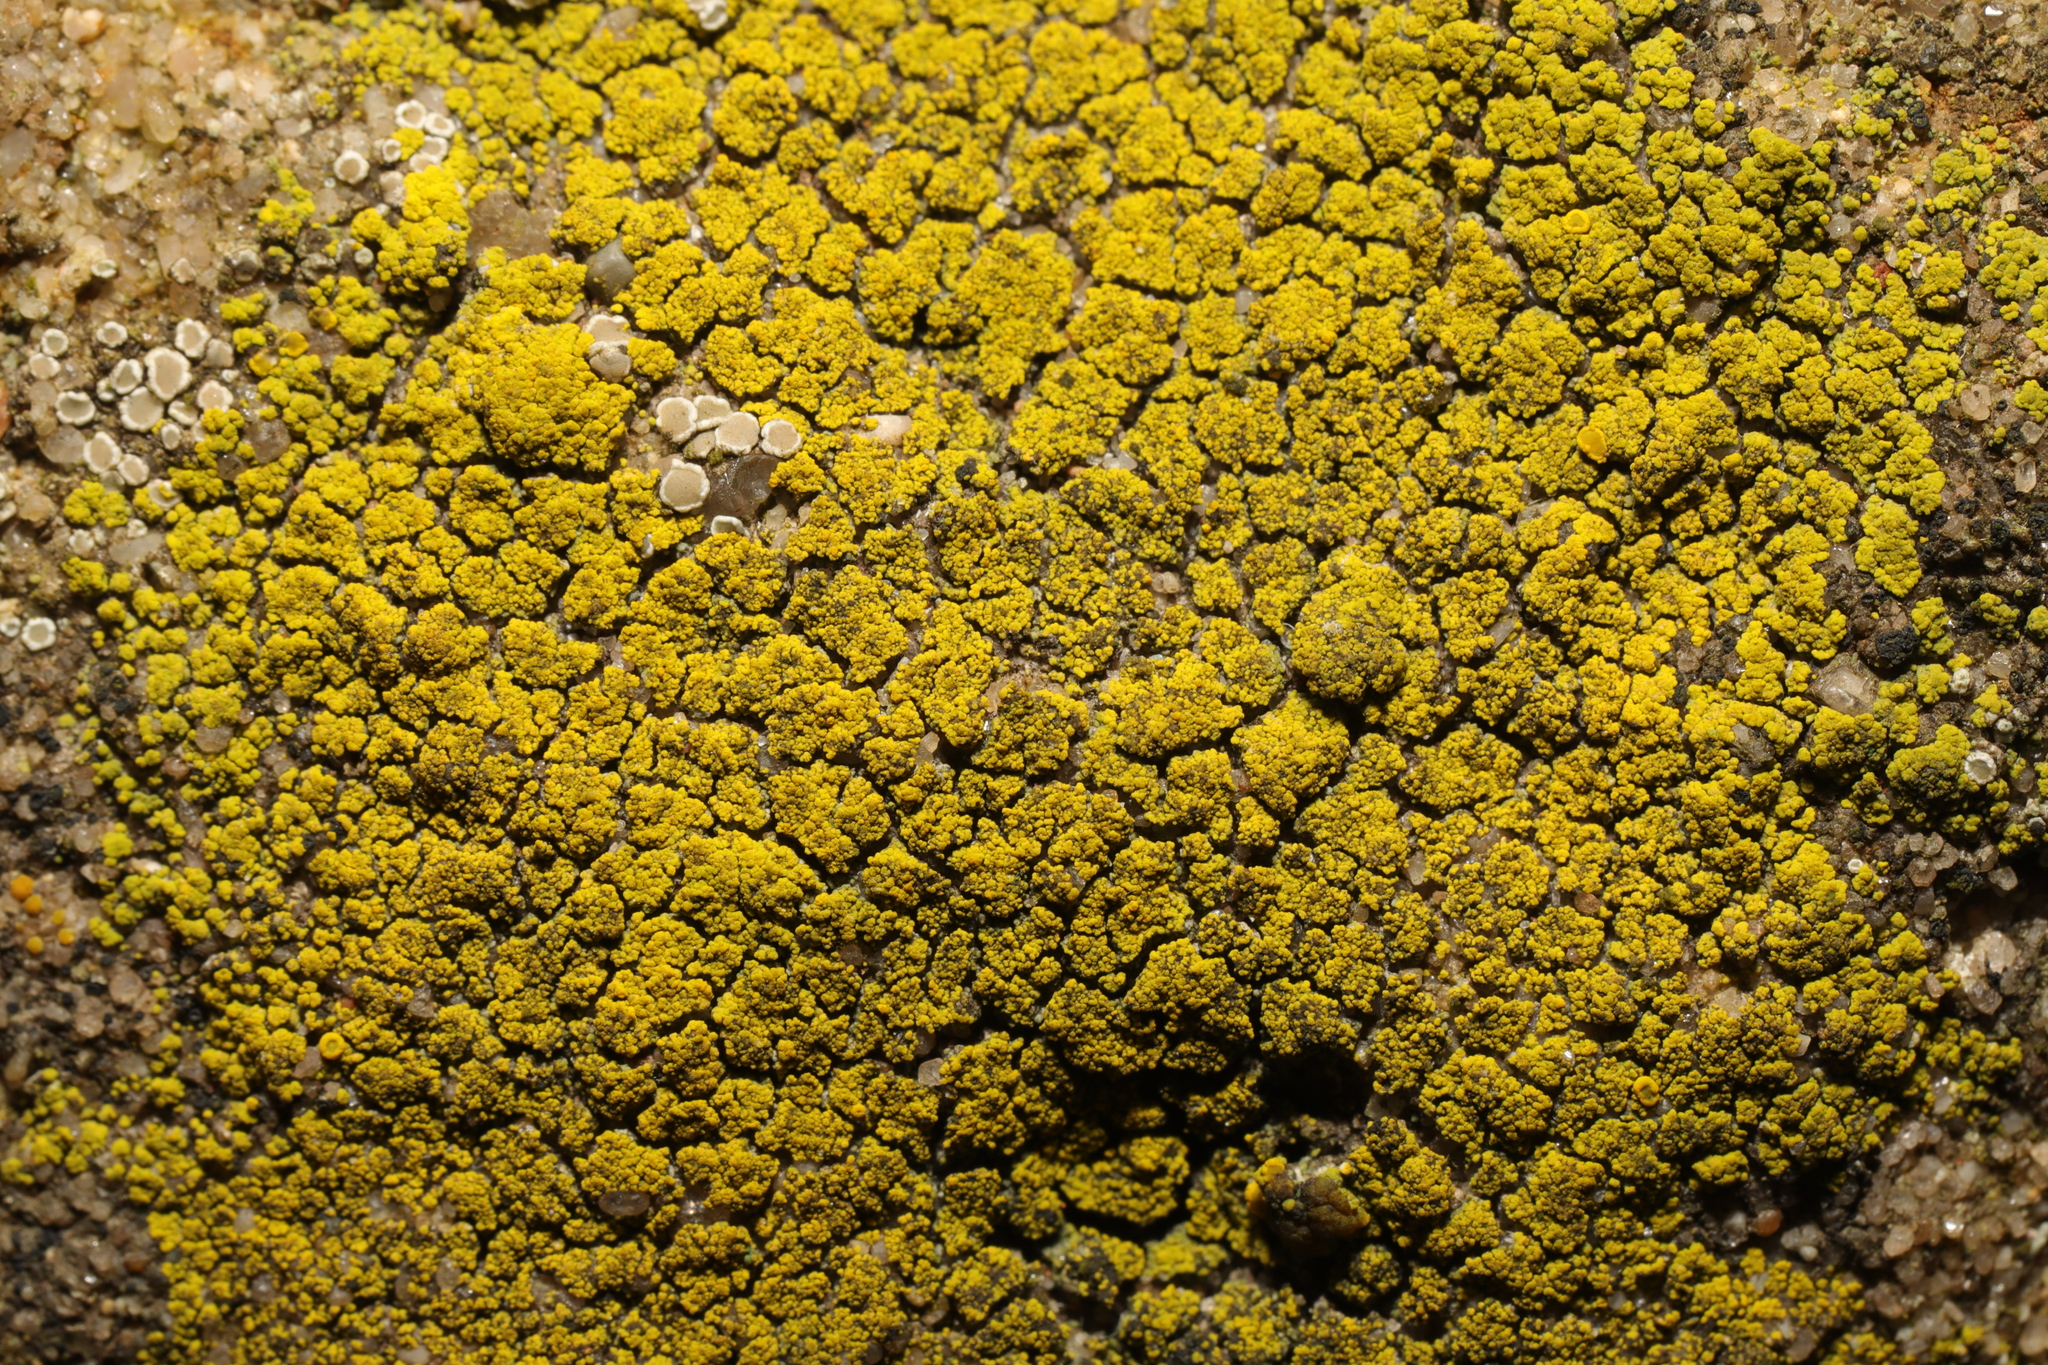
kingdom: Fungi
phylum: Ascomycota
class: Candelariomycetes
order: Candelariales
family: Candelariaceae
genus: Candelariella
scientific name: Candelariella vitellina
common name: Common goldspeck
